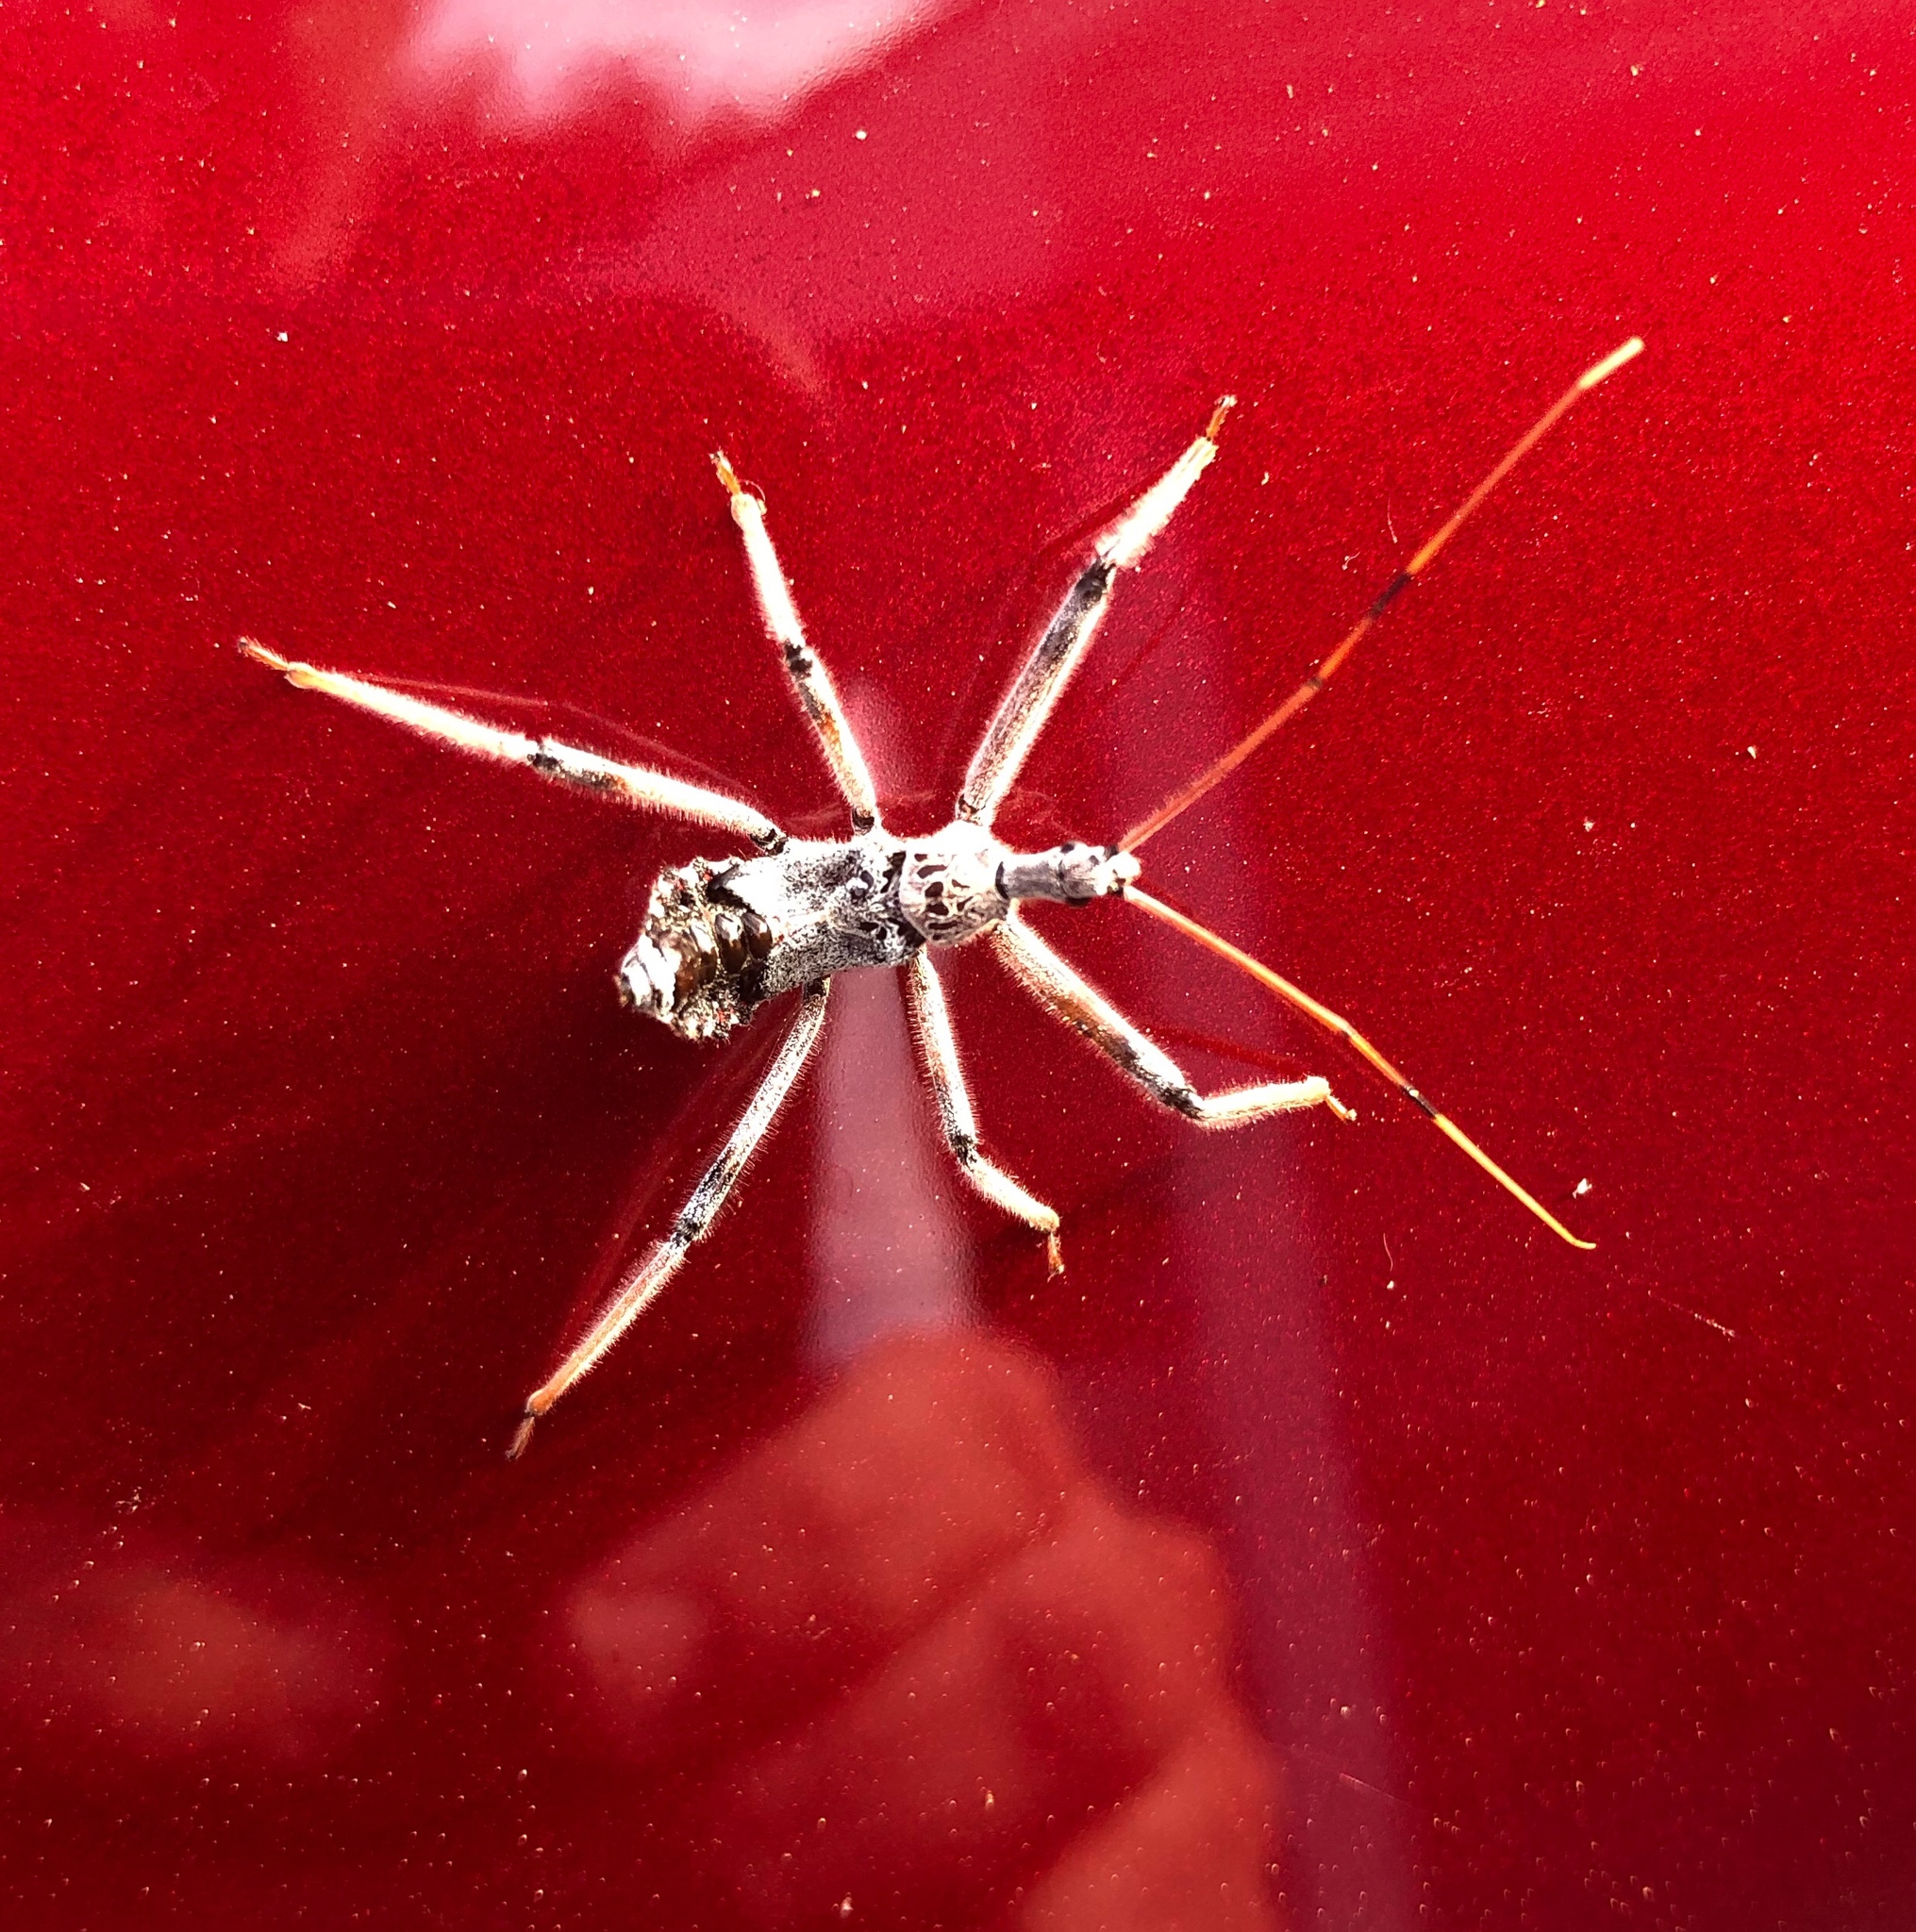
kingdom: Animalia
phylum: Arthropoda
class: Insecta
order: Hemiptera
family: Reduviidae
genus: Arilus
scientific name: Arilus cristatus
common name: North american wheel bug
